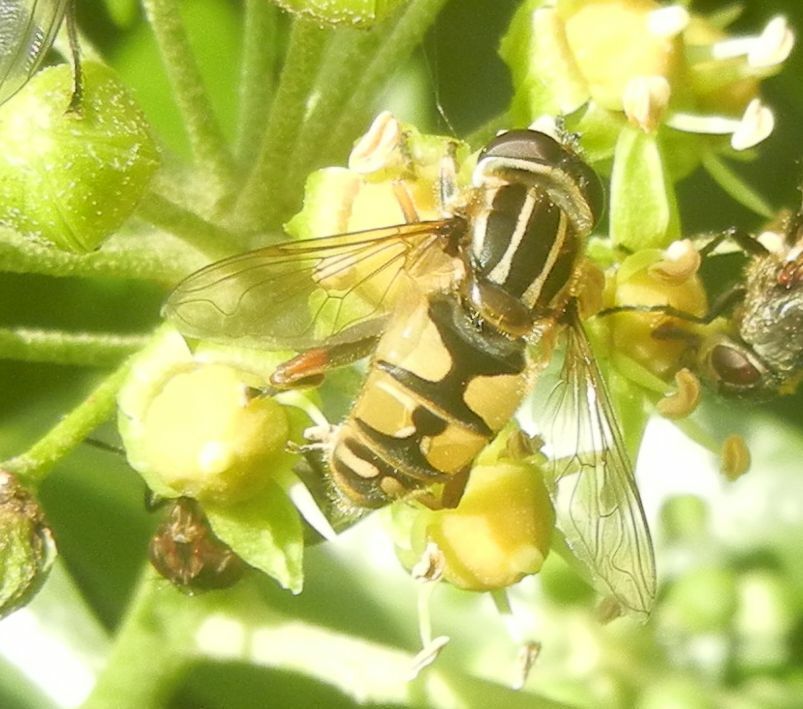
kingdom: Animalia
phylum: Arthropoda
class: Insecta
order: Diptera
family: Syrphidae
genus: Helophilus
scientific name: Helophilus pendulus
